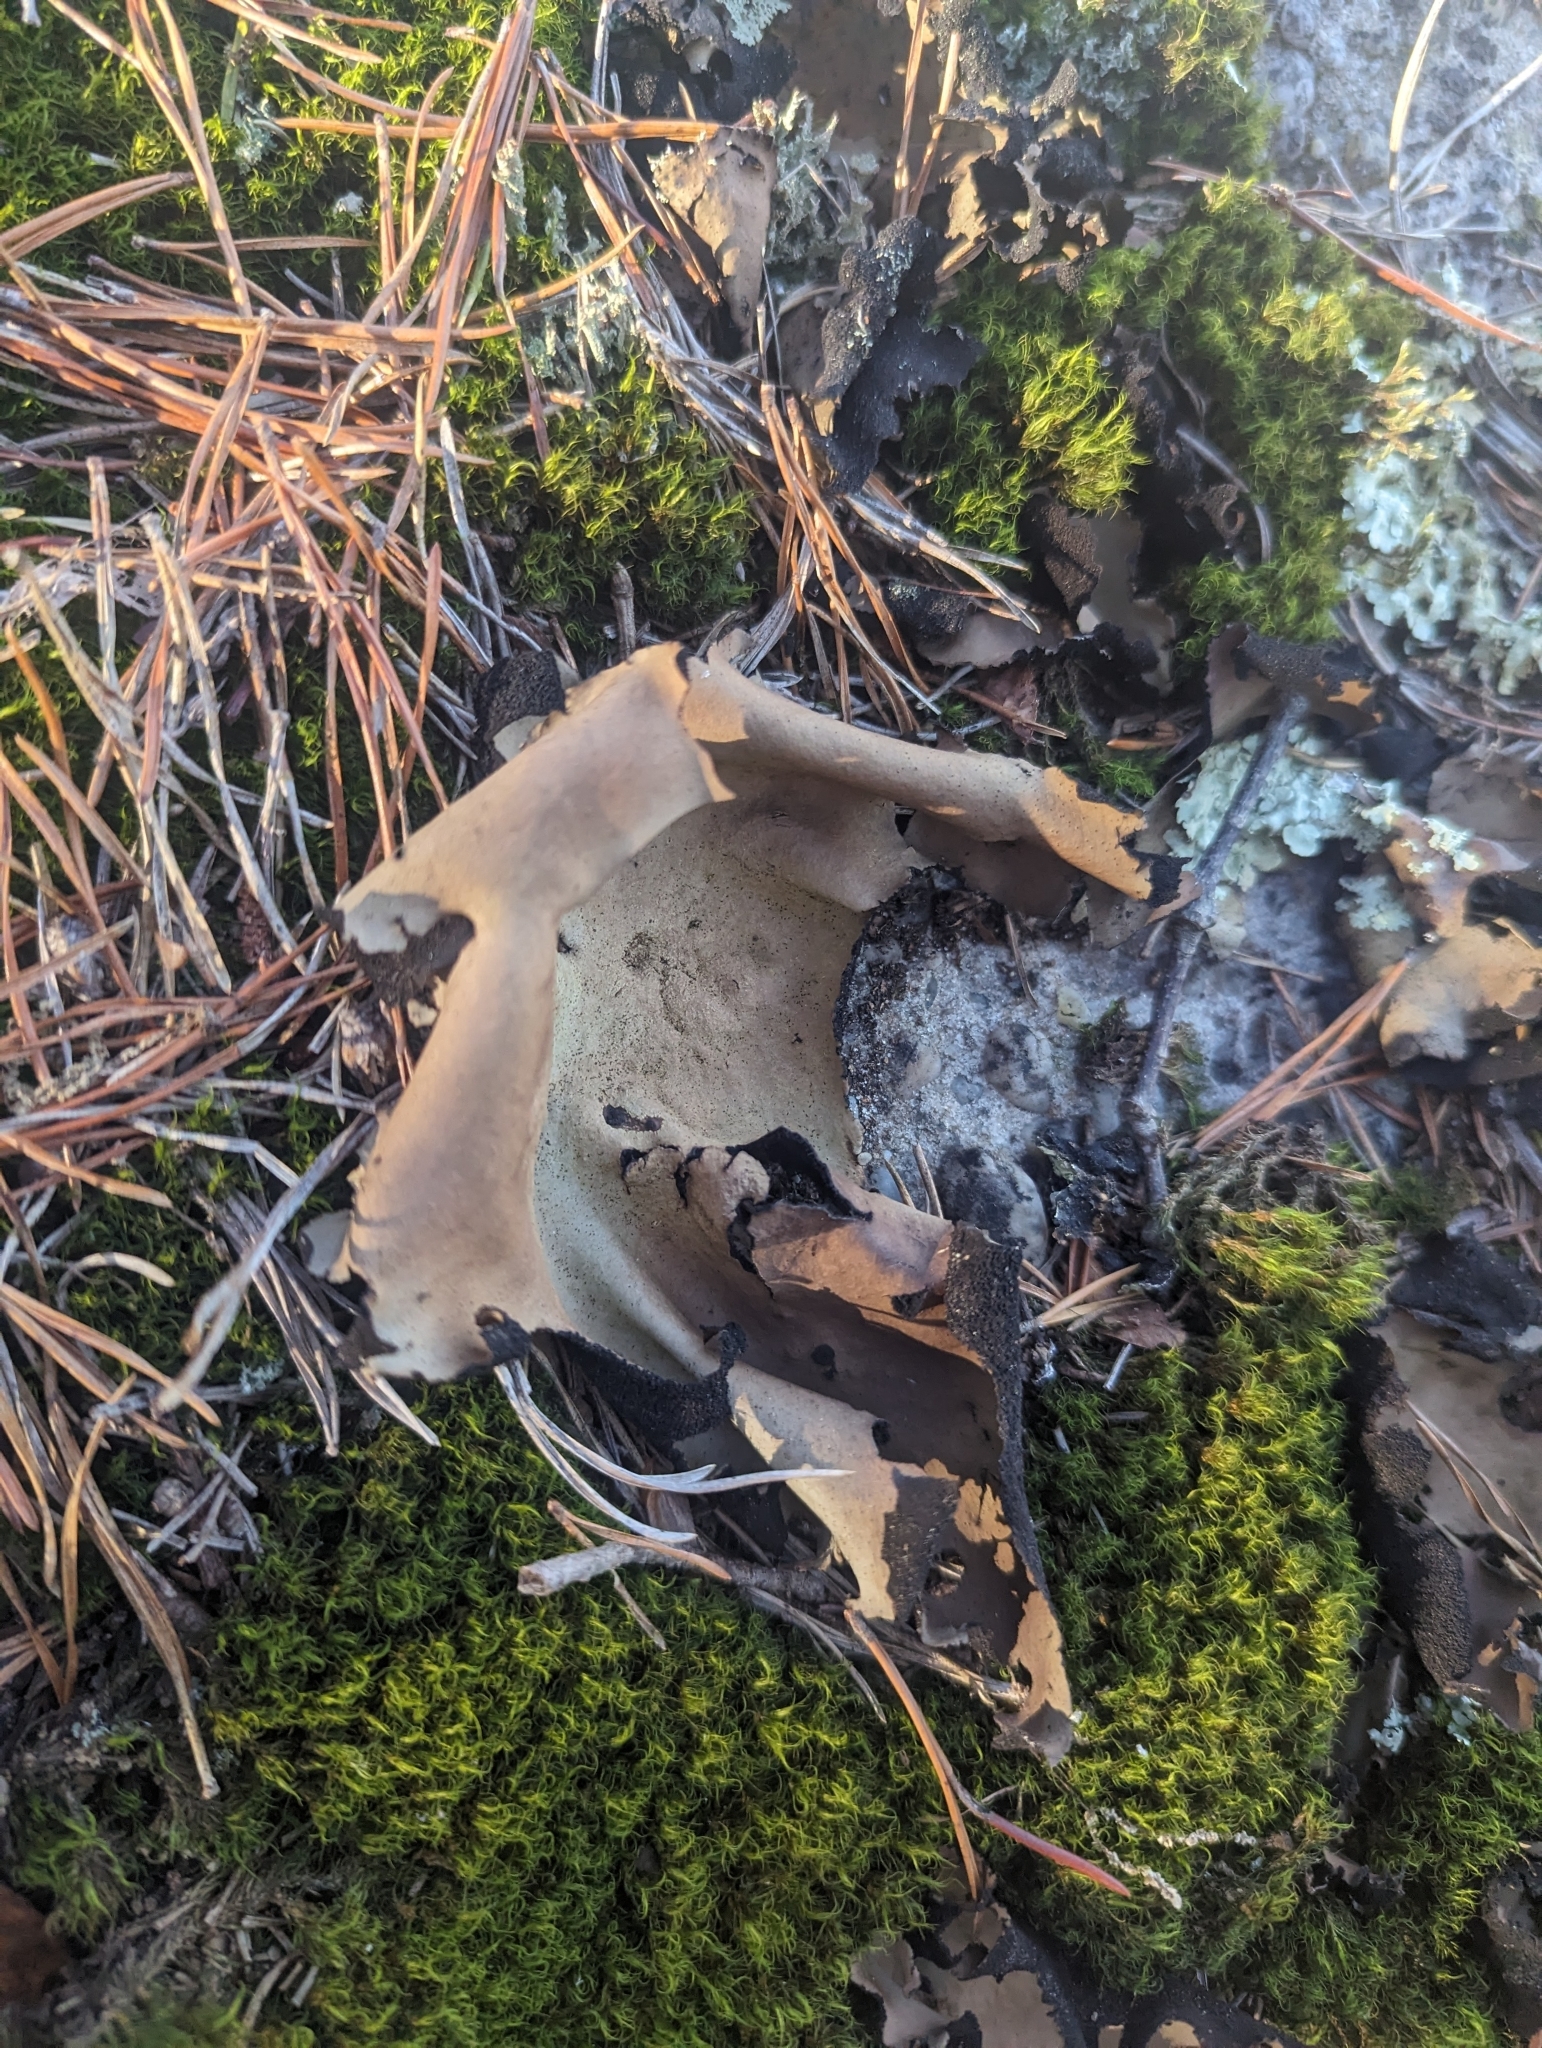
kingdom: Fungi
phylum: Ascomycota
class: Lecanoromycetes
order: Umbilicariales
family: Umbilicariaceae
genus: Umbilicaria
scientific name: Umbilicaria mammulata
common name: Smooth rock tripe
